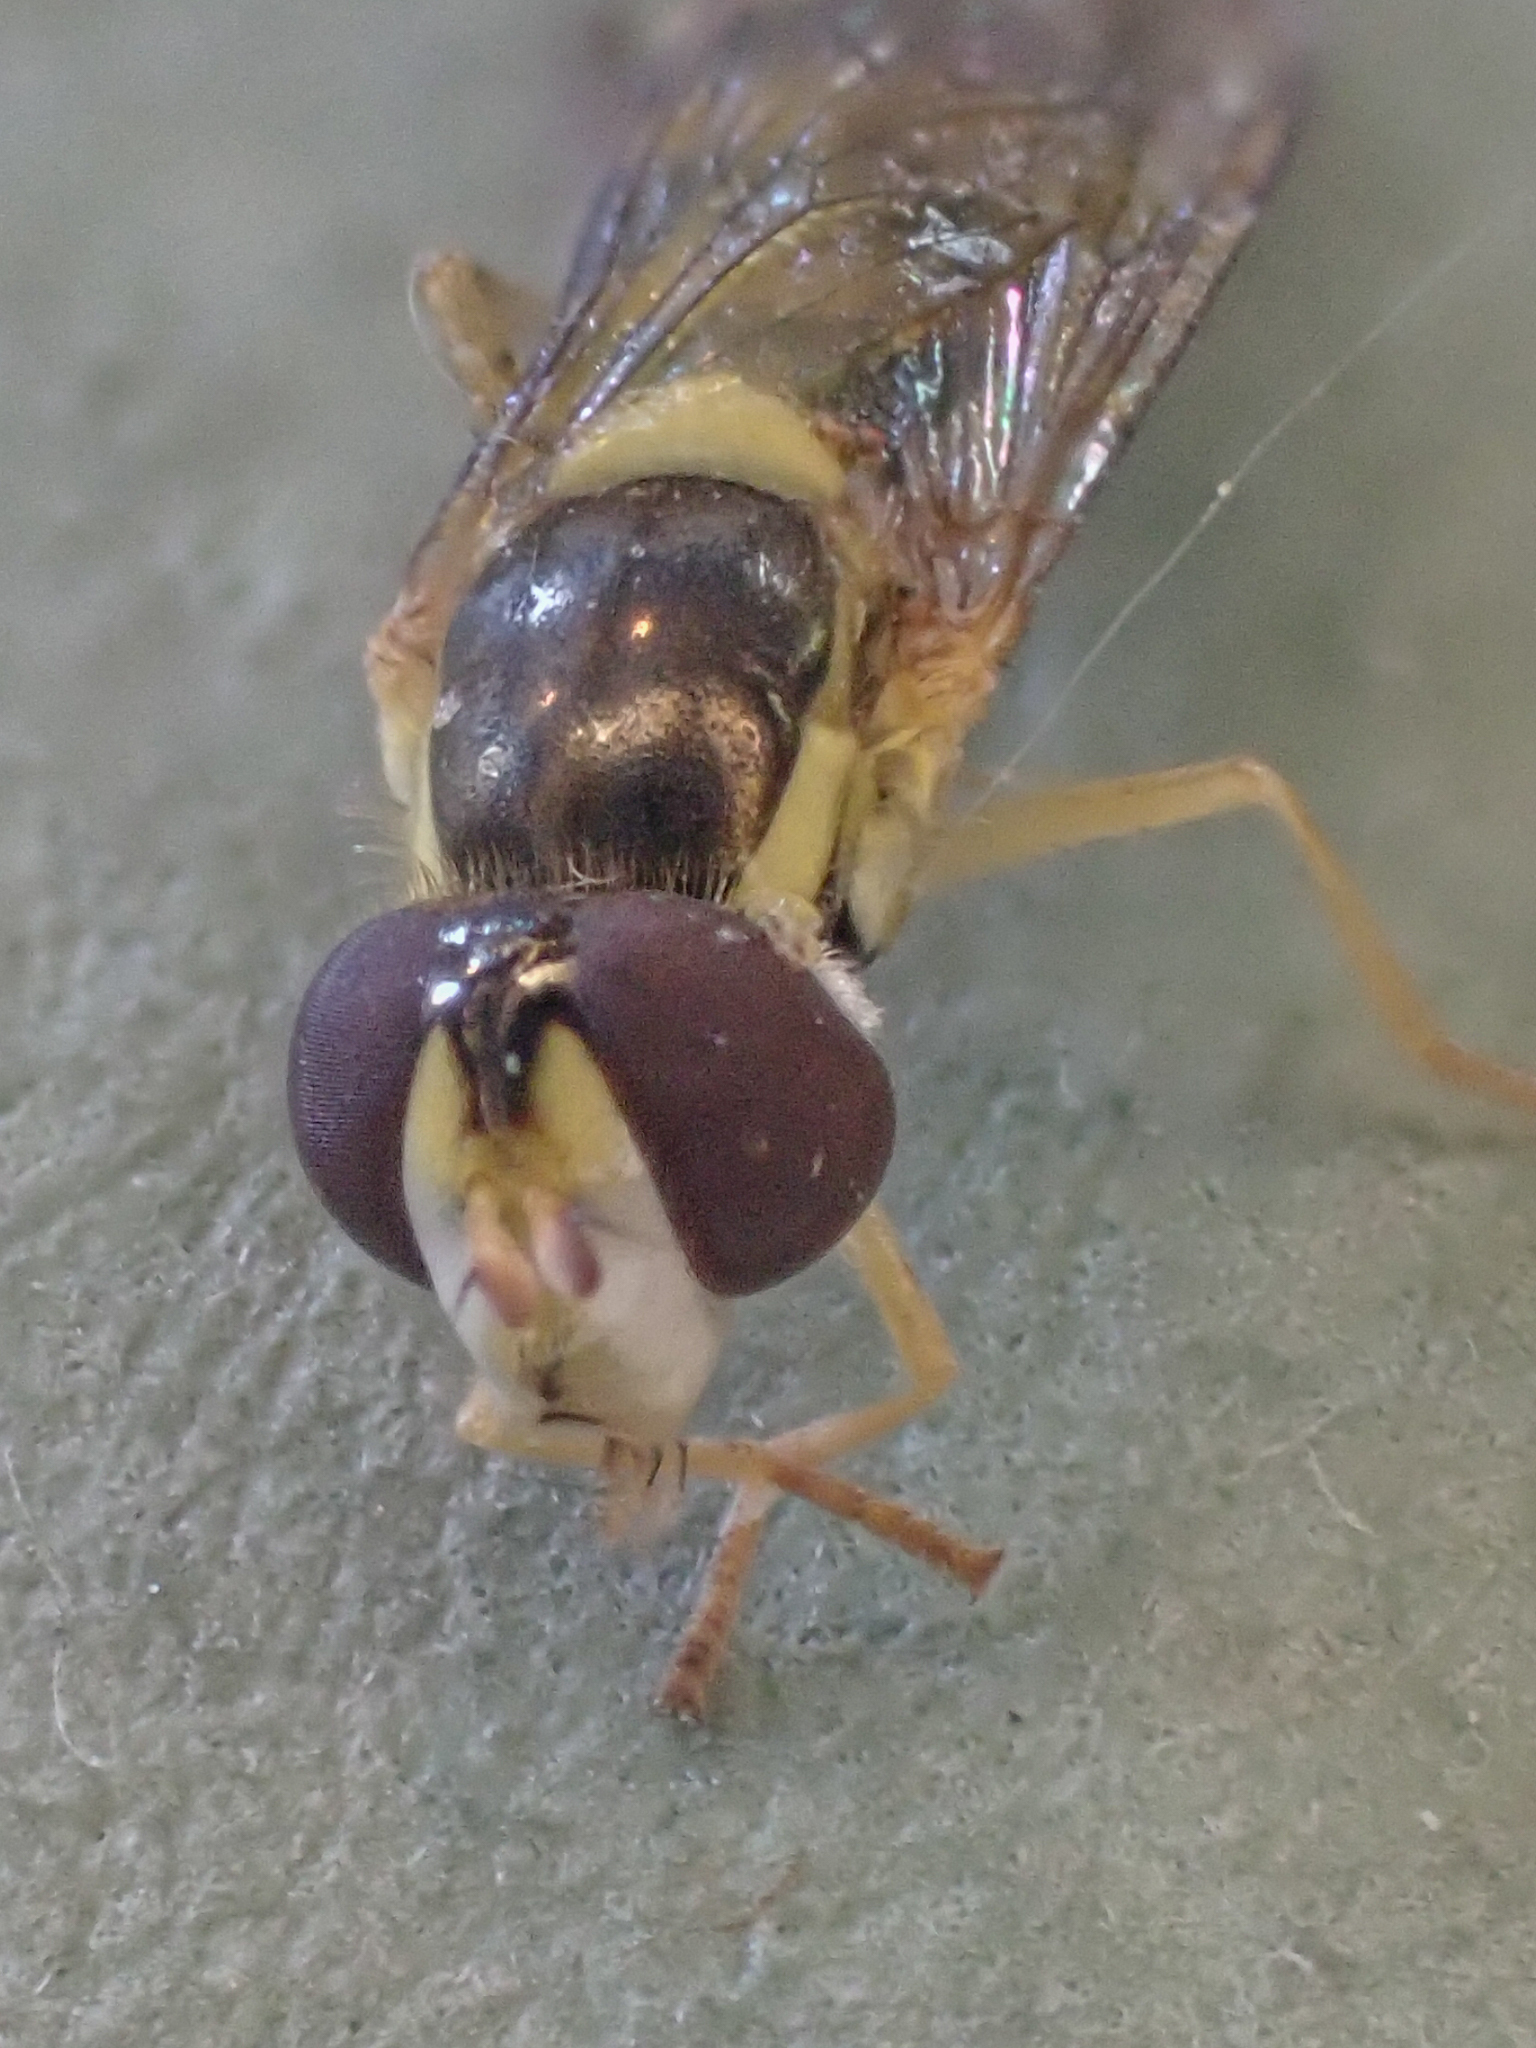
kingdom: Animalia
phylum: Arthropoda
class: Insecta
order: Diptera
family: Syrphidae
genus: Sphaerophoria
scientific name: Sphaerophoria
